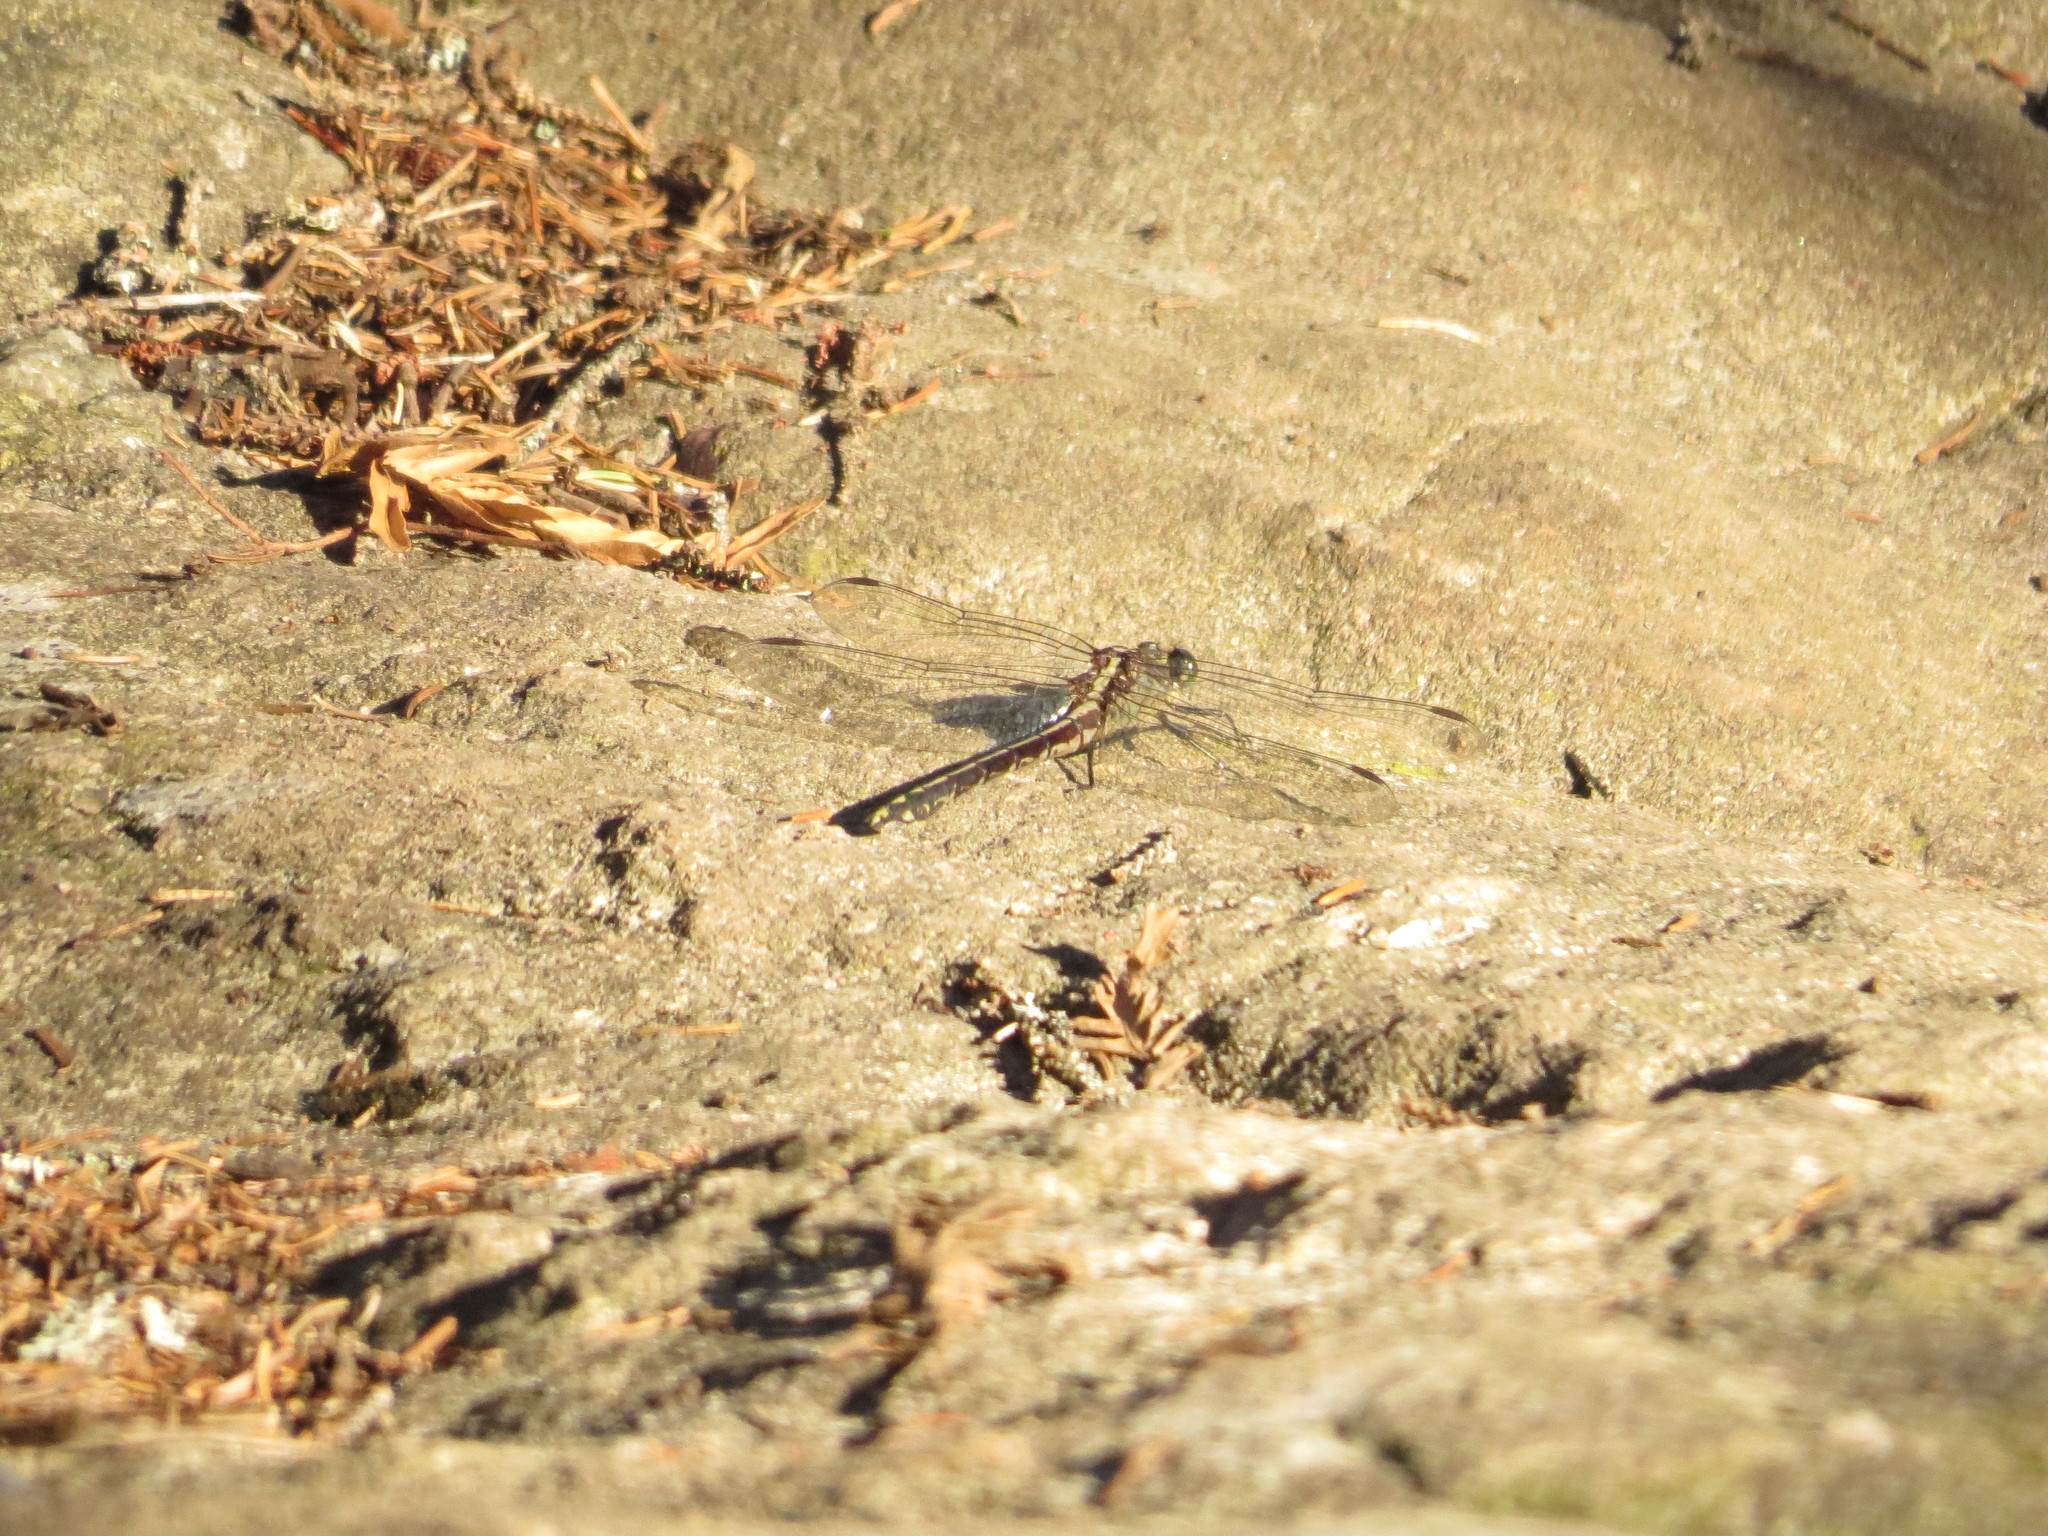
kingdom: Animalia
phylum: Arthropoda
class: Insecta
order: Odonata
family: Gomphidae
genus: Dromogomphus
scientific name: Dromogomphus spinosus
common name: Black-shouldered spinyleg
